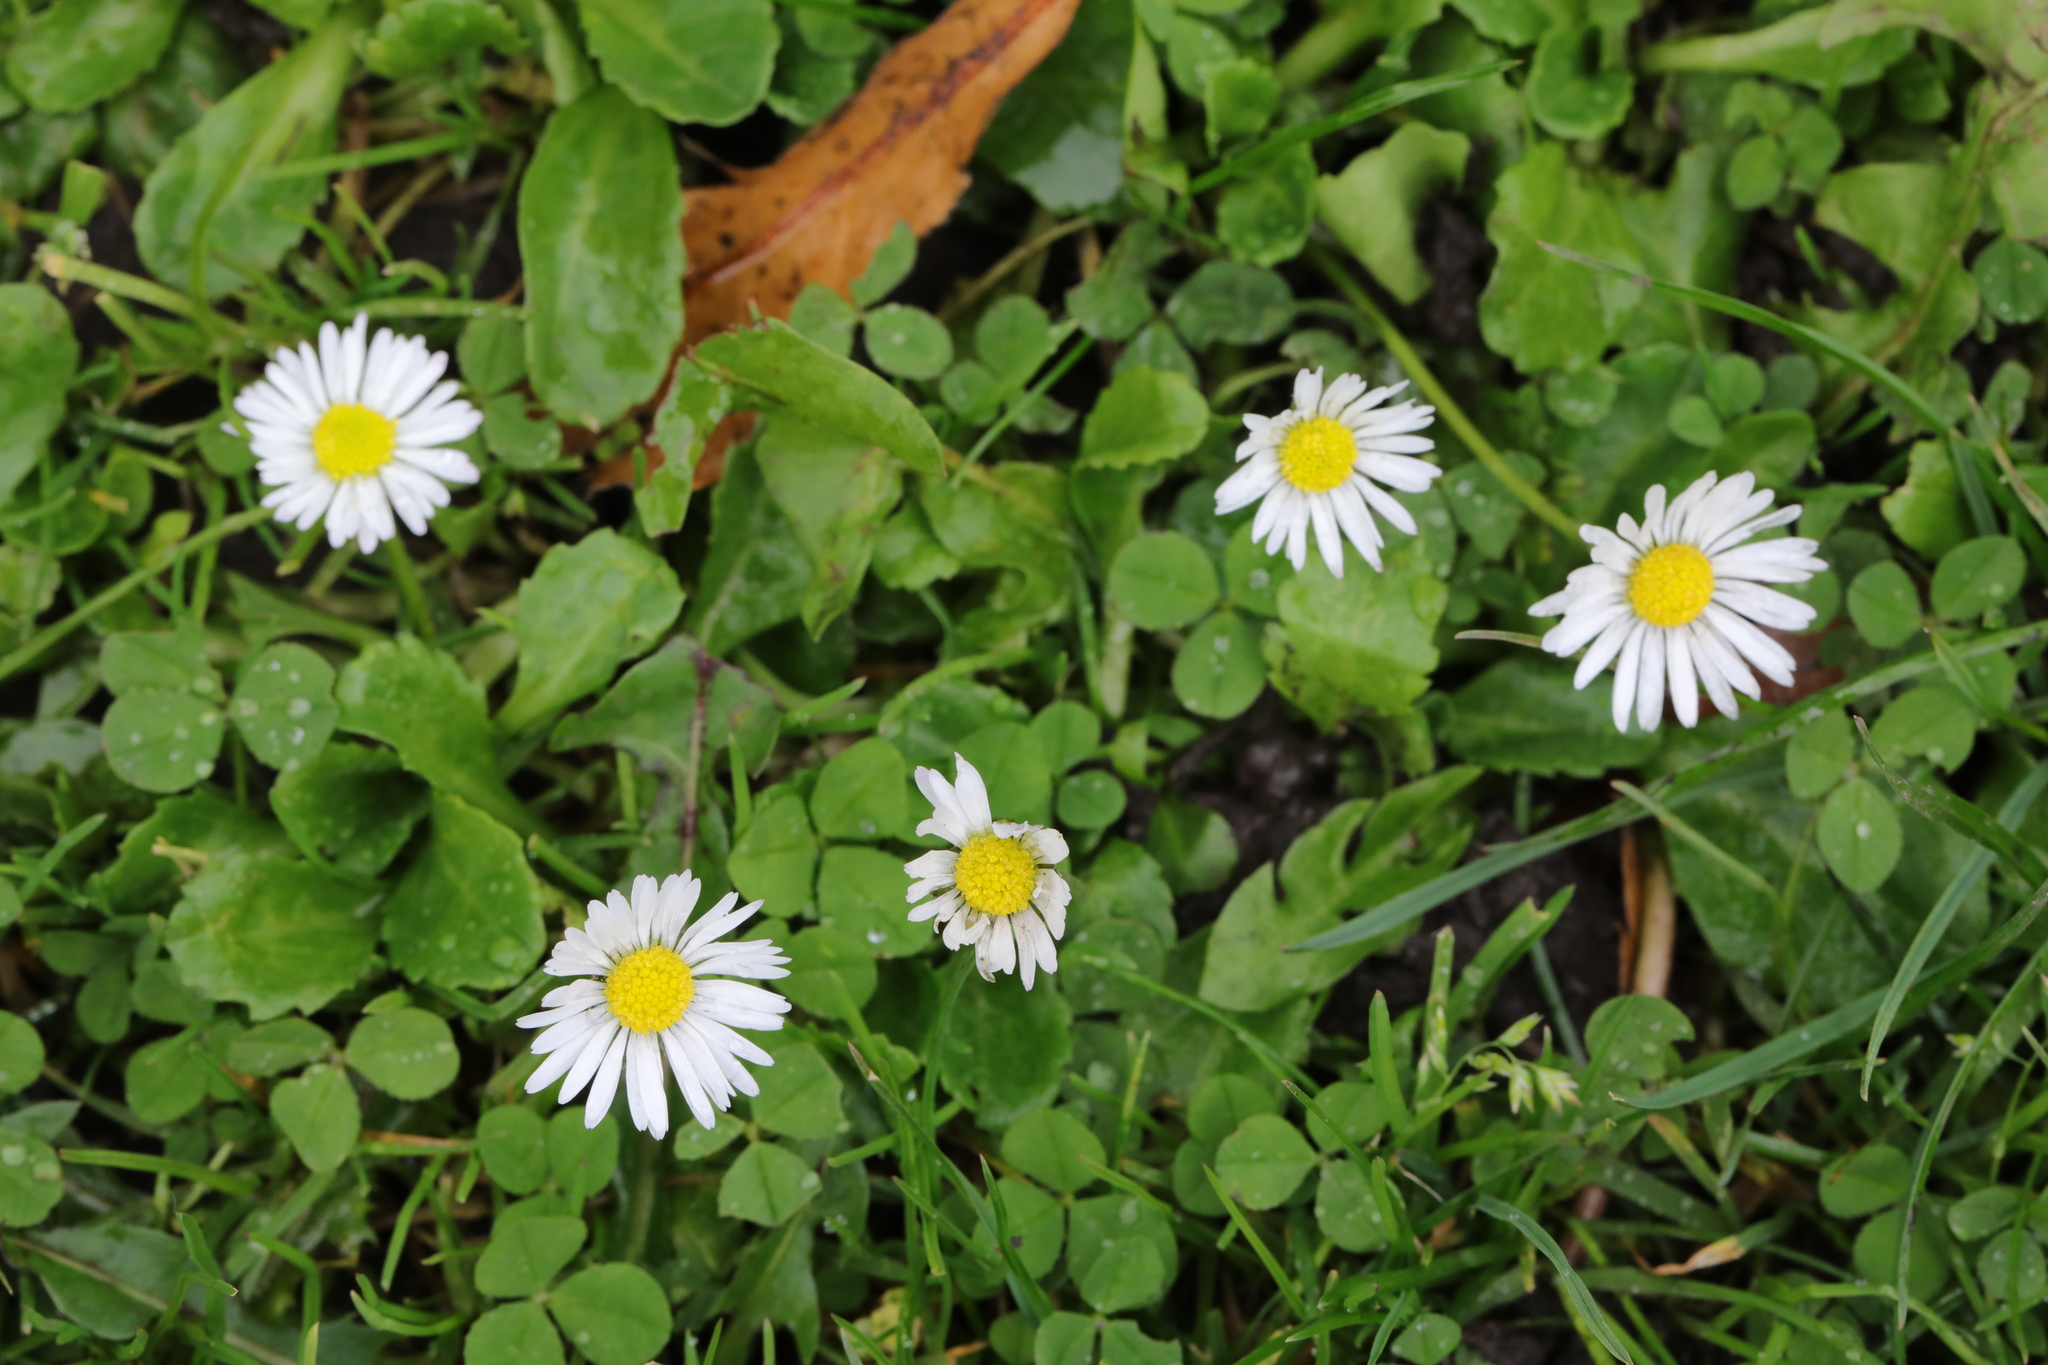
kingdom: Plantae
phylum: Tracheophyta
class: Magnoliopsida
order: Asterales
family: Asteraceae
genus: Bellis
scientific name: Bellis perennis
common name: Lawndaisy
